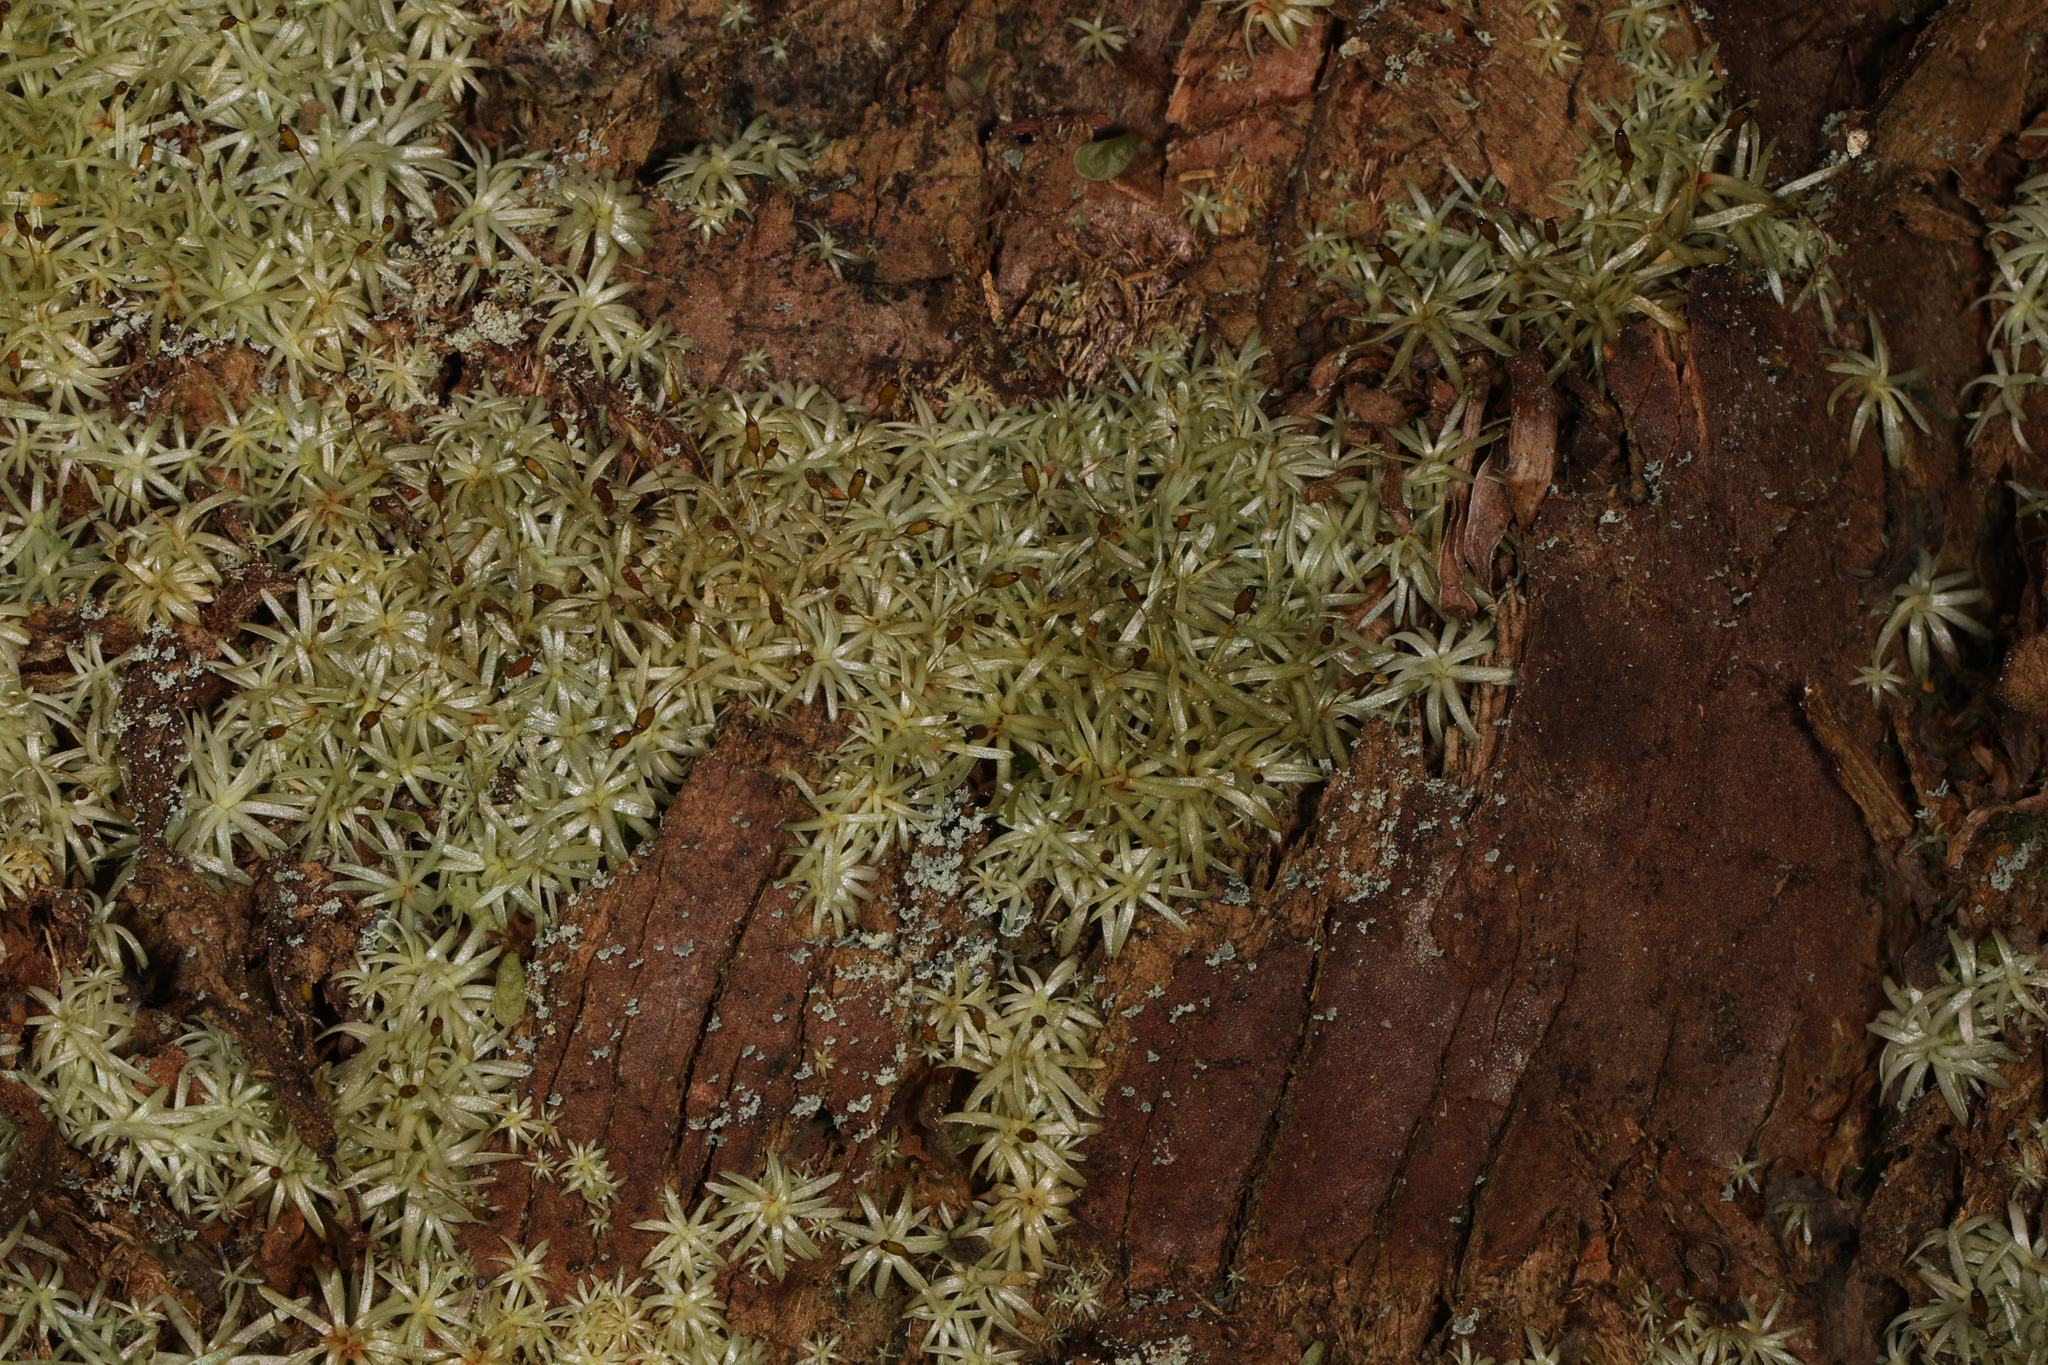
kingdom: Plantae
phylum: Bryophyta
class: Bryopsida
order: Dicranales
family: Octoblepharaceae
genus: Octoblepharum
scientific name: Octoblepharum albidum
